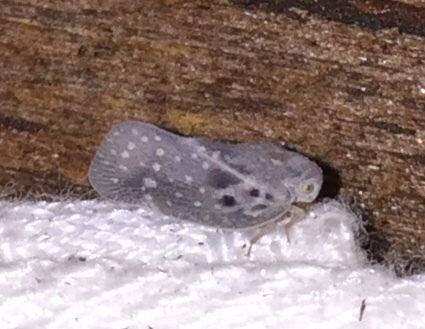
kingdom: Animalia
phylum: Arthropoda
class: Insecta
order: Hemiptera
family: Flatidae
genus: Metcalfa
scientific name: Metcalfa pruinosa
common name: Citrus flatid planthopper
